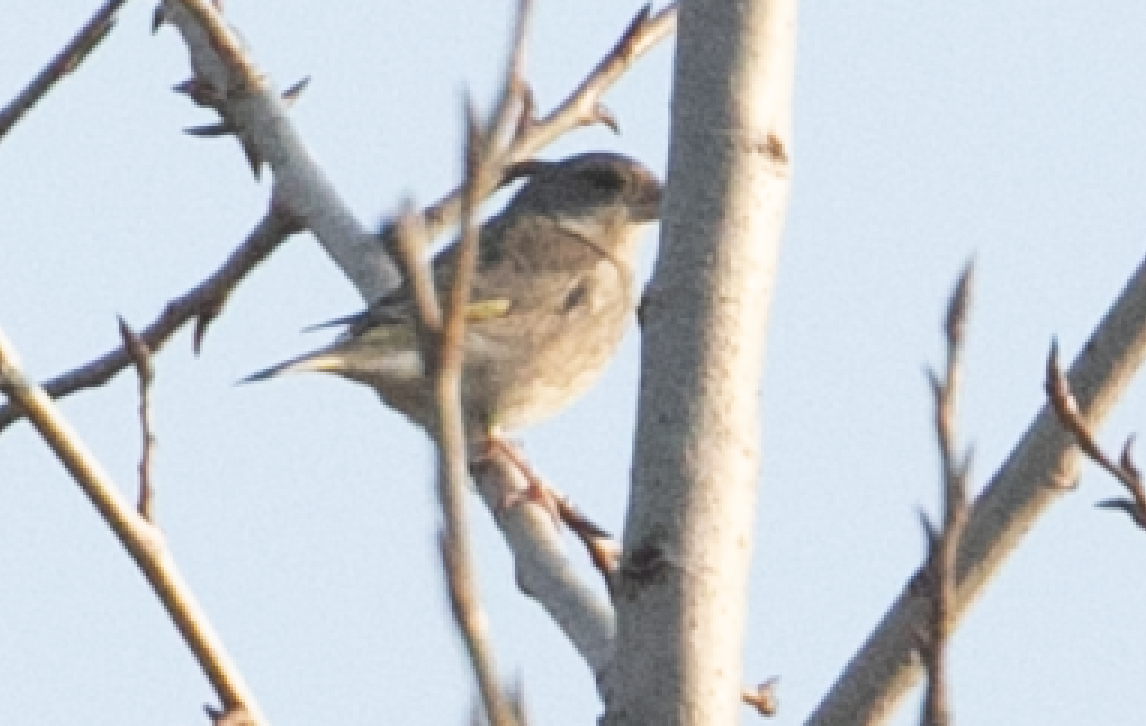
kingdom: Plantae
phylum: Tracheophyta
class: Liliopsida
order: Poales
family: Poaceae
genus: Chloris
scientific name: Chloris chloris
